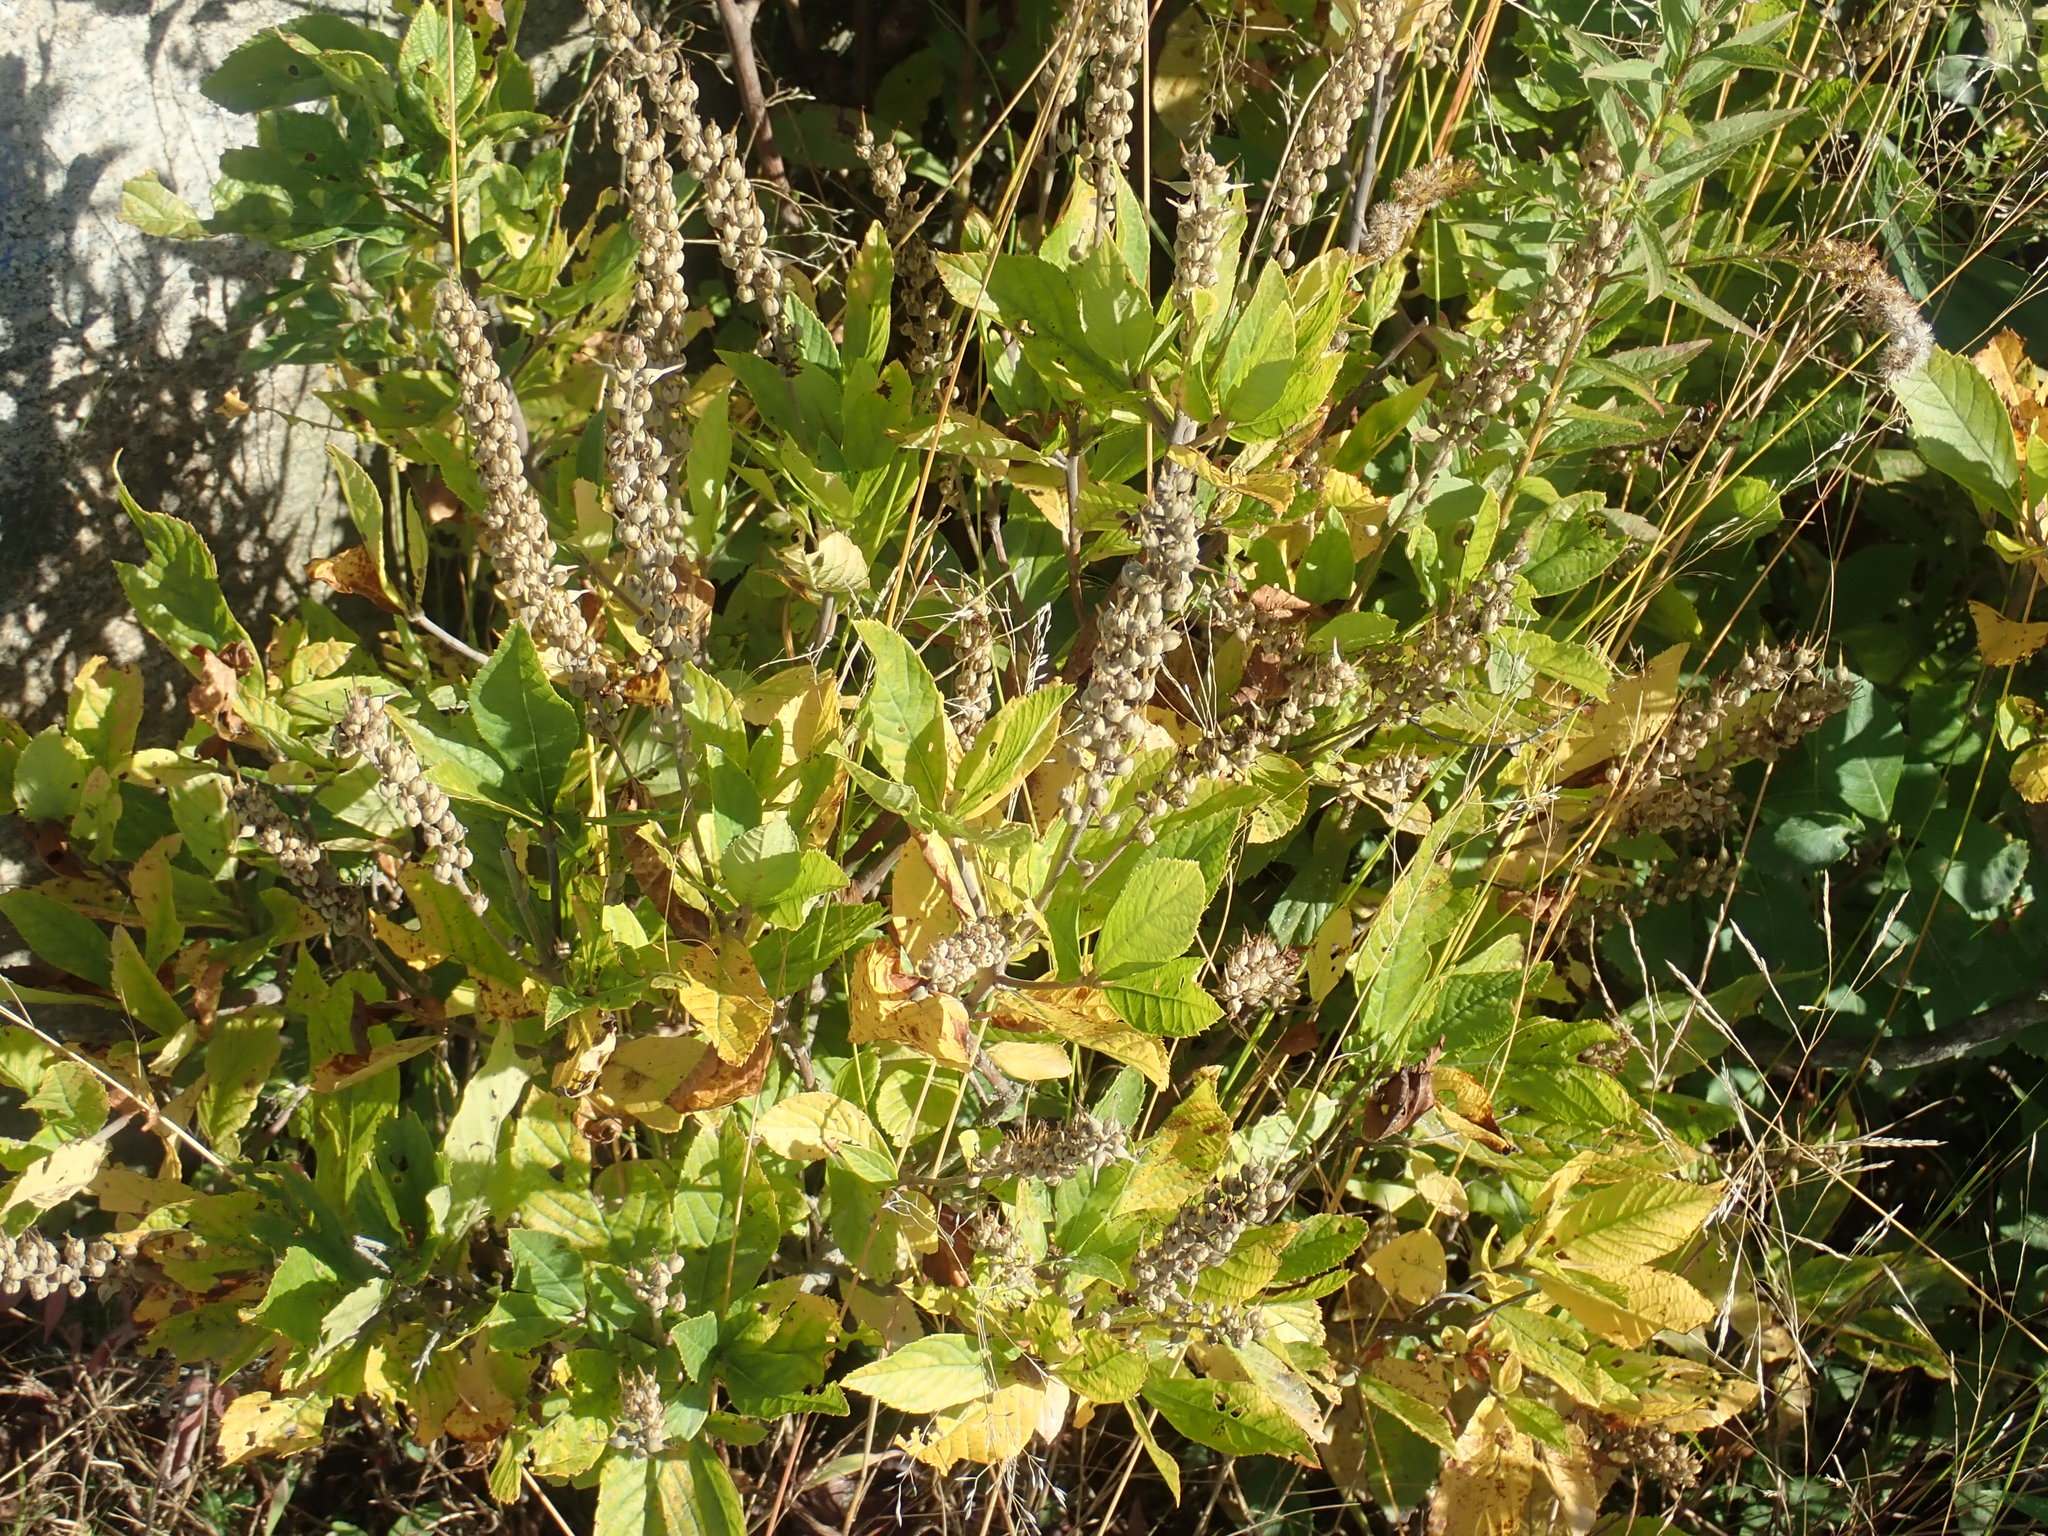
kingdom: Plantae
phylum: Tracheophyta
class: Magnoliopsida
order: Ericales
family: Clethraceae
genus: Clethra
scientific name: Clethra alnifolia
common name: Sweet pepperbush
